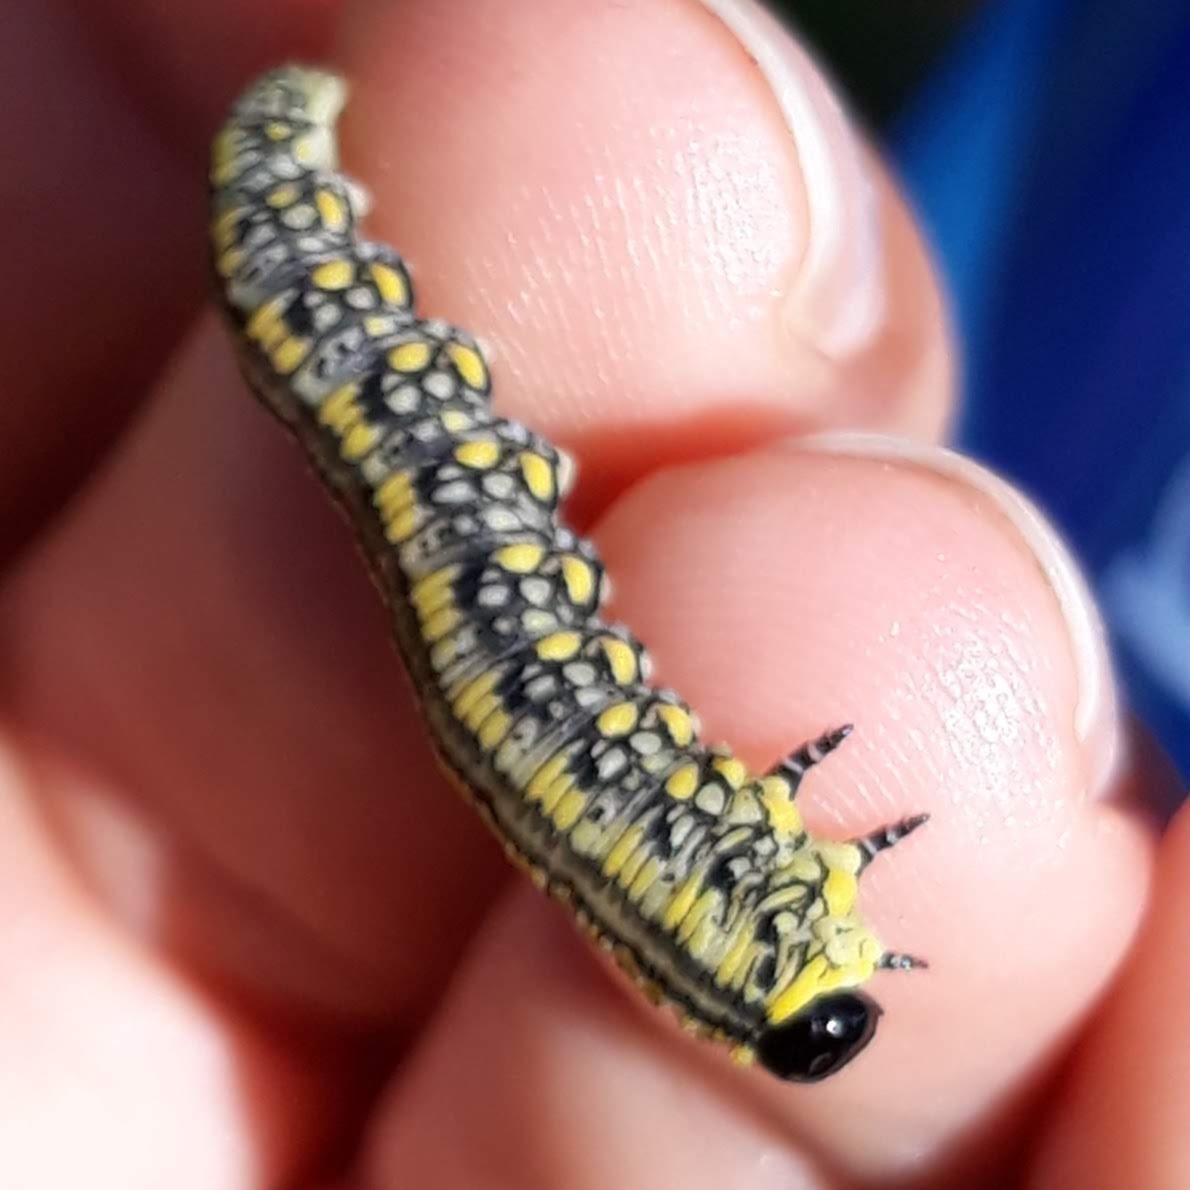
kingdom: Animalia
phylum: Arthropoda
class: Insecta
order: Hymenoptera
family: Diprionidae
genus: Diprion
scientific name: Diprion similis
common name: Pine sawfly
